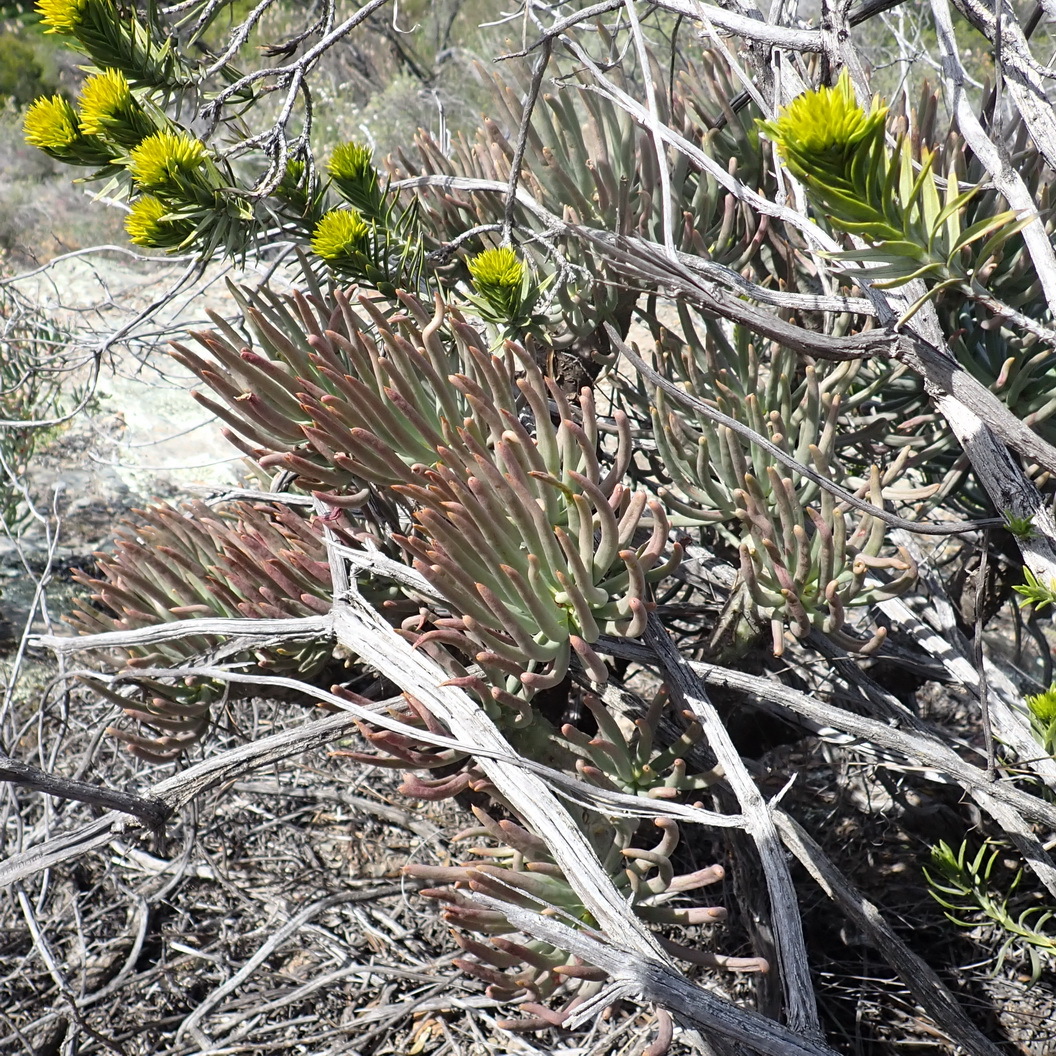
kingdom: Plantae
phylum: Tracheophyta
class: Magnoliopsida
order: Saxifragales
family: Crassulaceae
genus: Tylecodon
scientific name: Tylecodon cacaliodes
